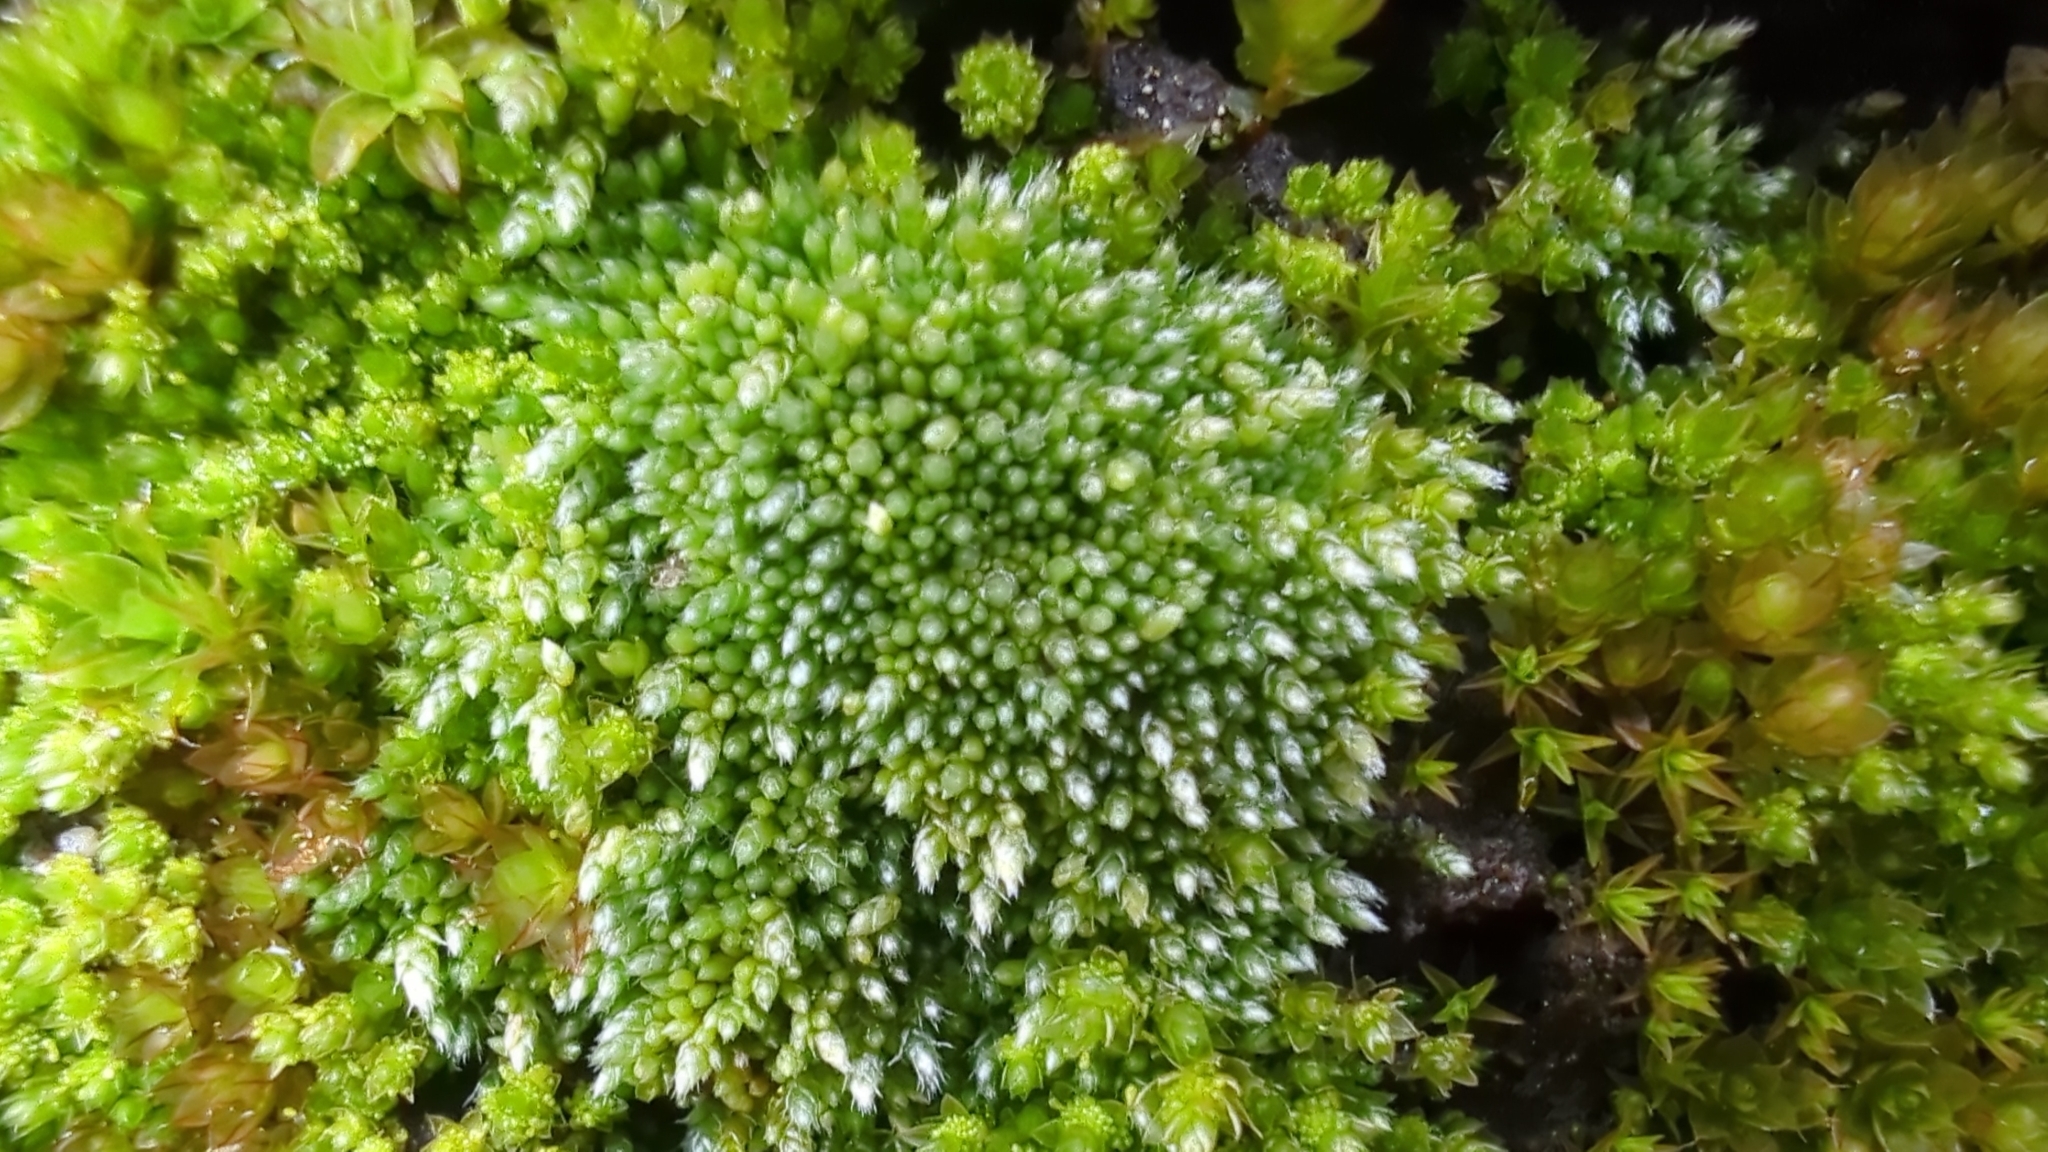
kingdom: Plantae
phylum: Bryophyta
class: Bryopsida
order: Bryales
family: Bryaceae
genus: Bryum
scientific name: Bryum argenteum
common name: Silver-moss
